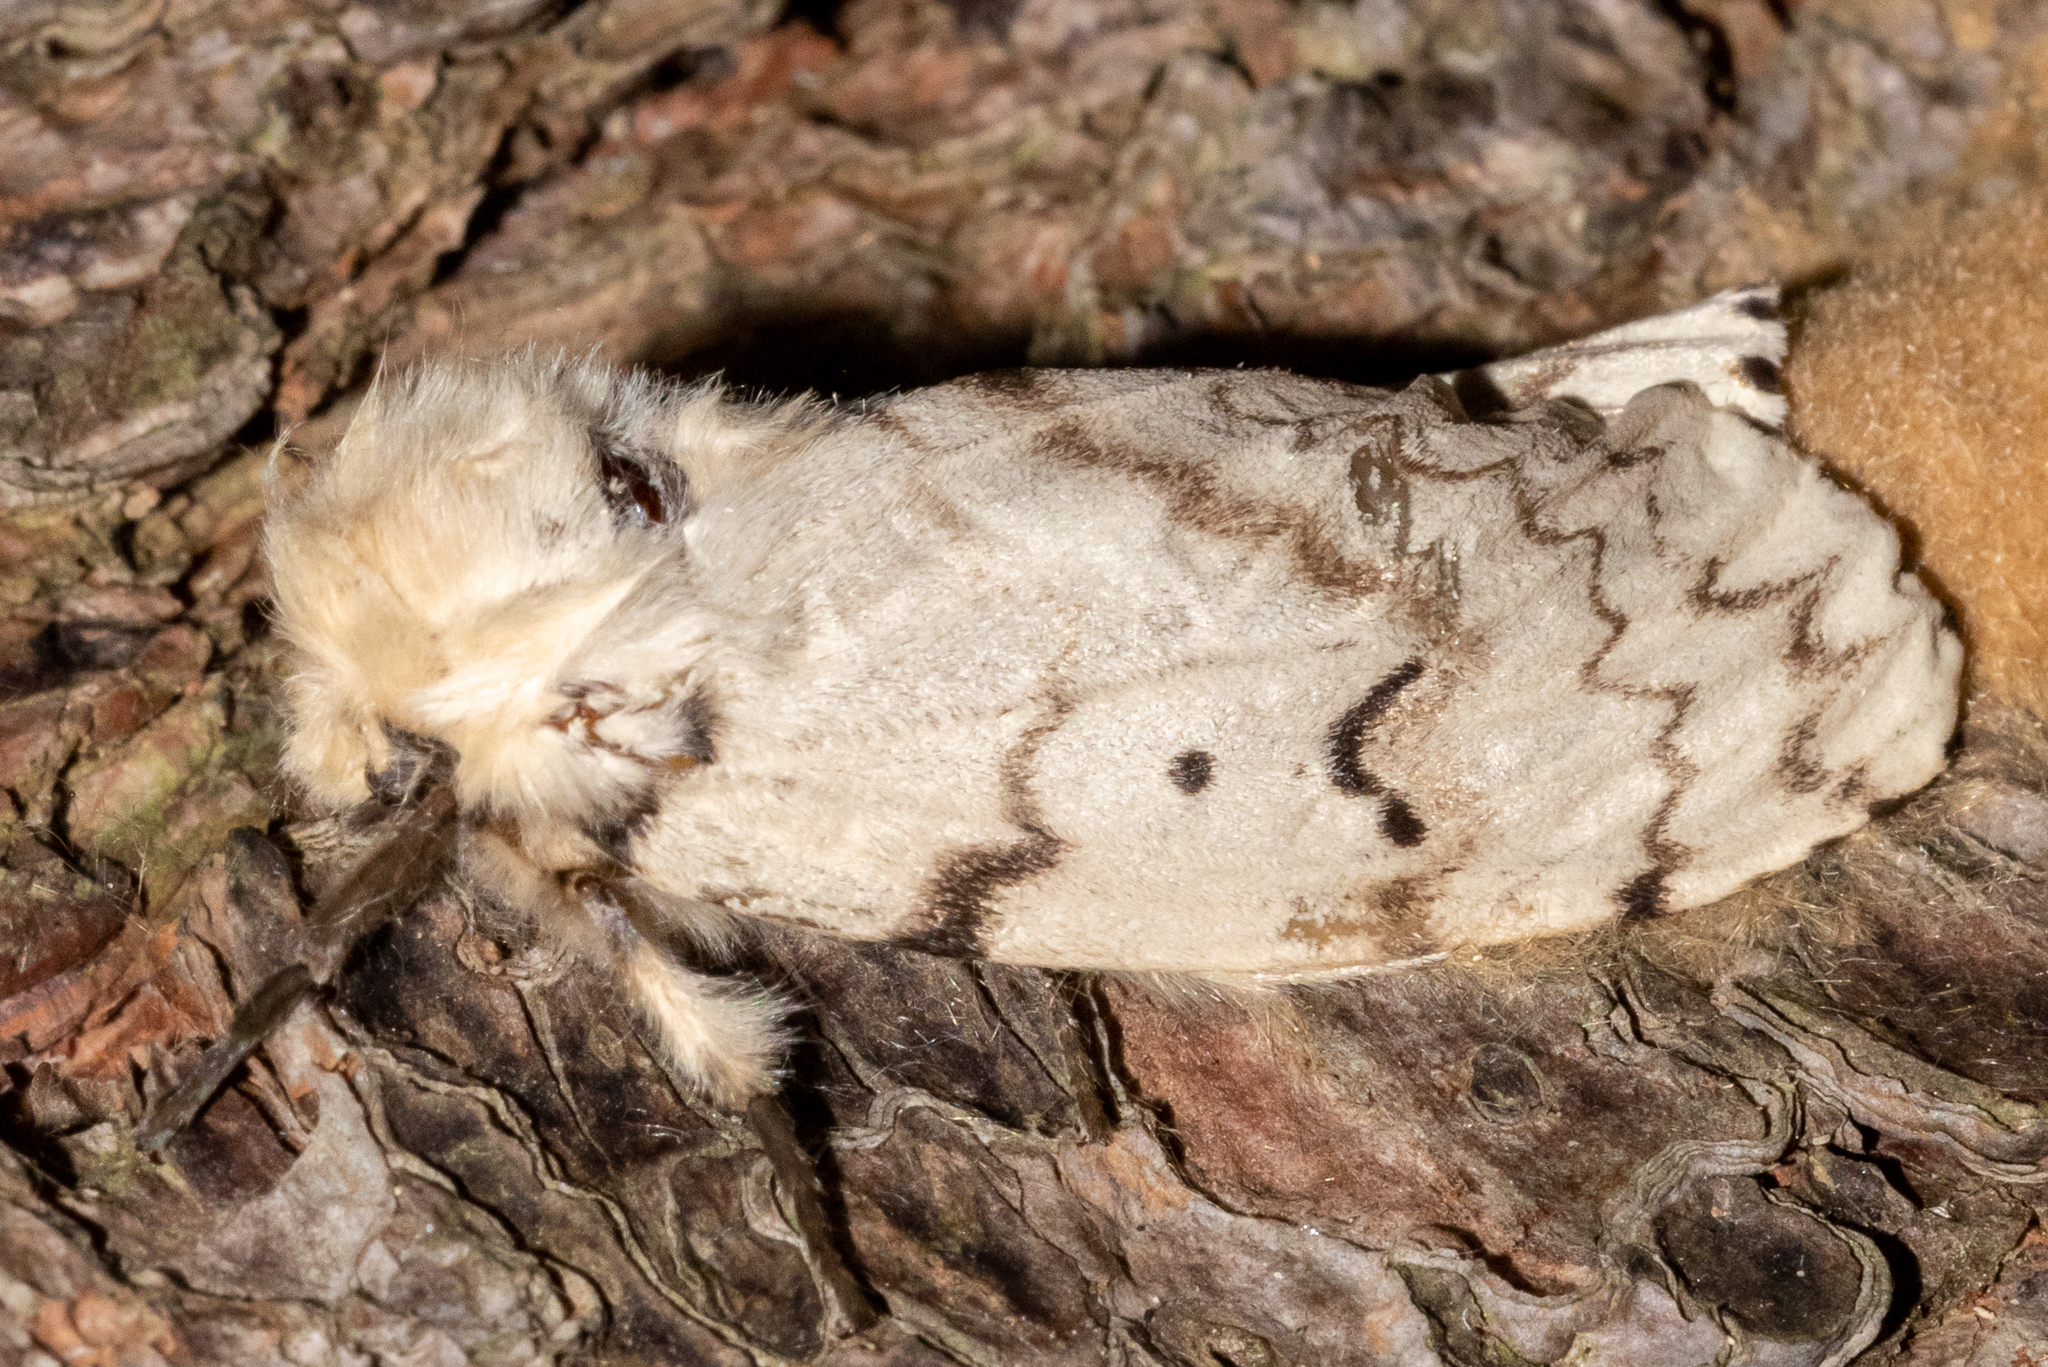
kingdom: Animalia
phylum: Arthropoda
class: Insecta
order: Lepidoptera
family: Erebidae
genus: Lymantria
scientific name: Lymantria dispar
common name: Gypsy moth
